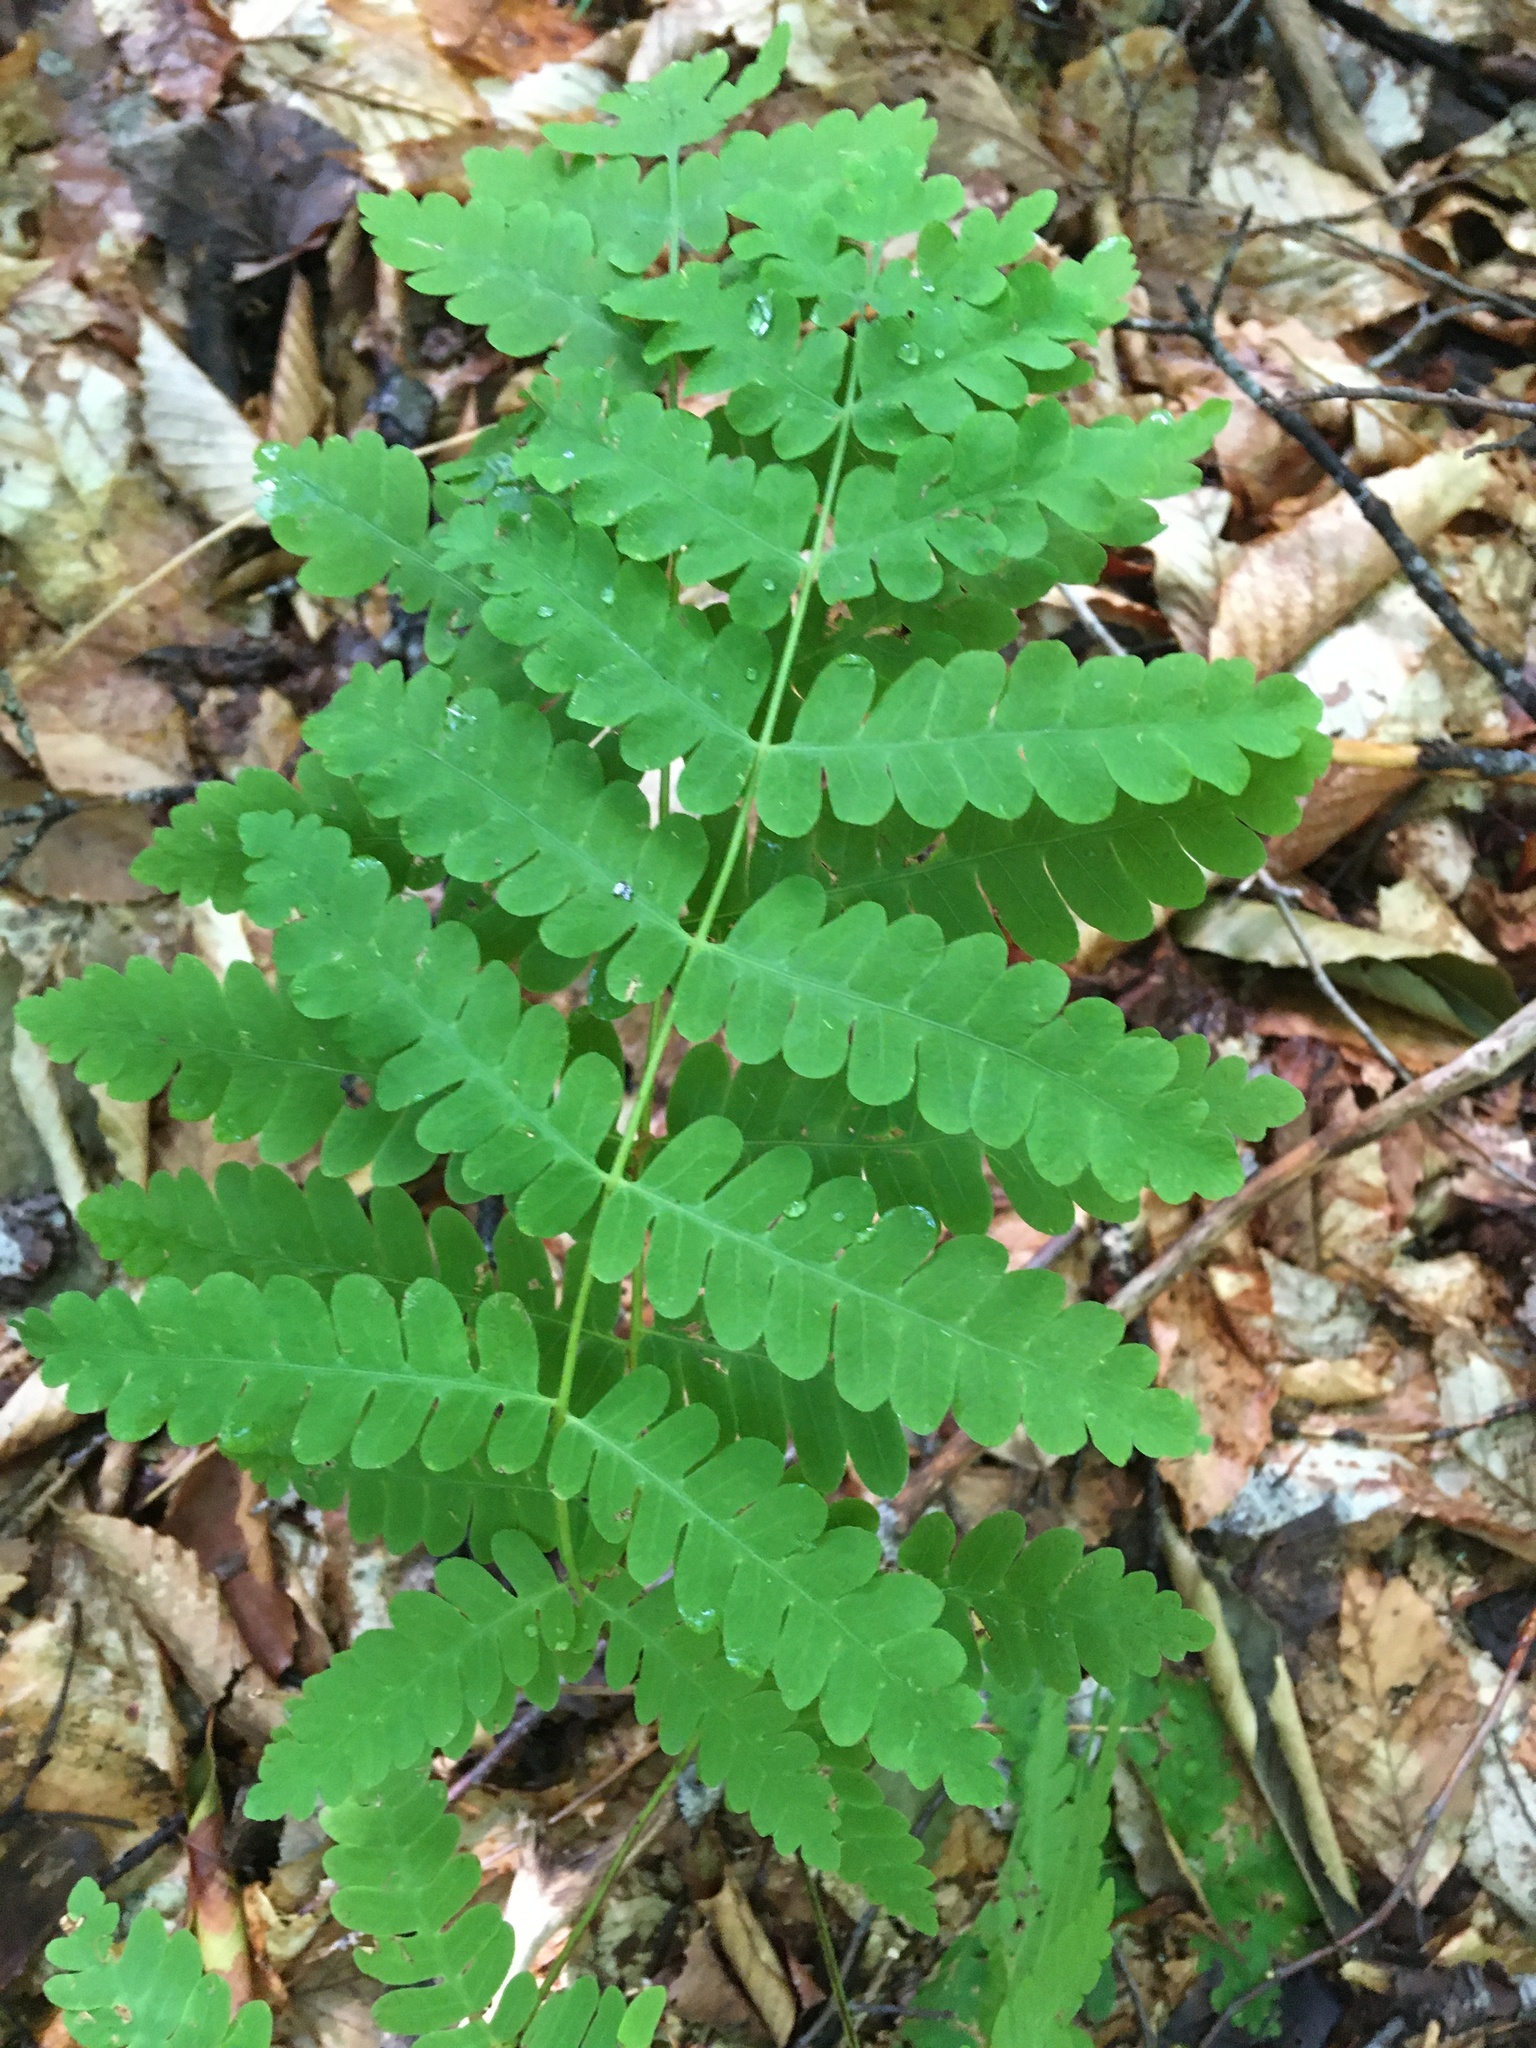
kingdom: Plantae
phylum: Tracheophyta
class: Polypodiopsida
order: Osmundales
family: Osmundaceae
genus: Claytosmunda
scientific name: Claytosmunda claytoniana
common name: Clayton's fern
